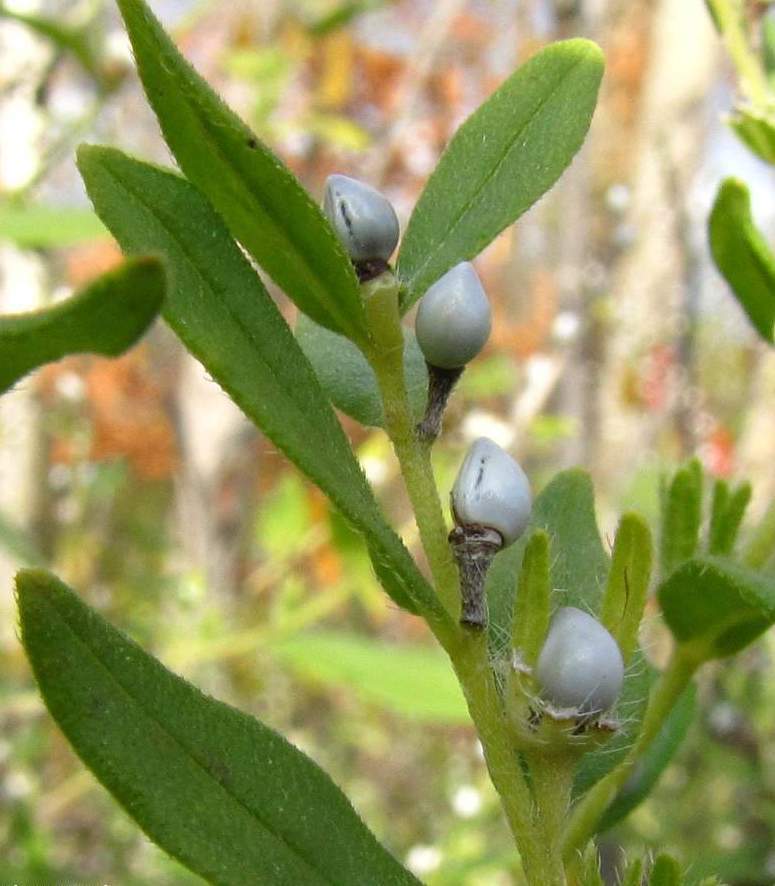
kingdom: Plantae
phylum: Tracheophyta
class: Magnoliopsida
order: Boraginales
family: Boraginaceae
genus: Lithospermum
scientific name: Lithospermum officinale
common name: Common gromwell
